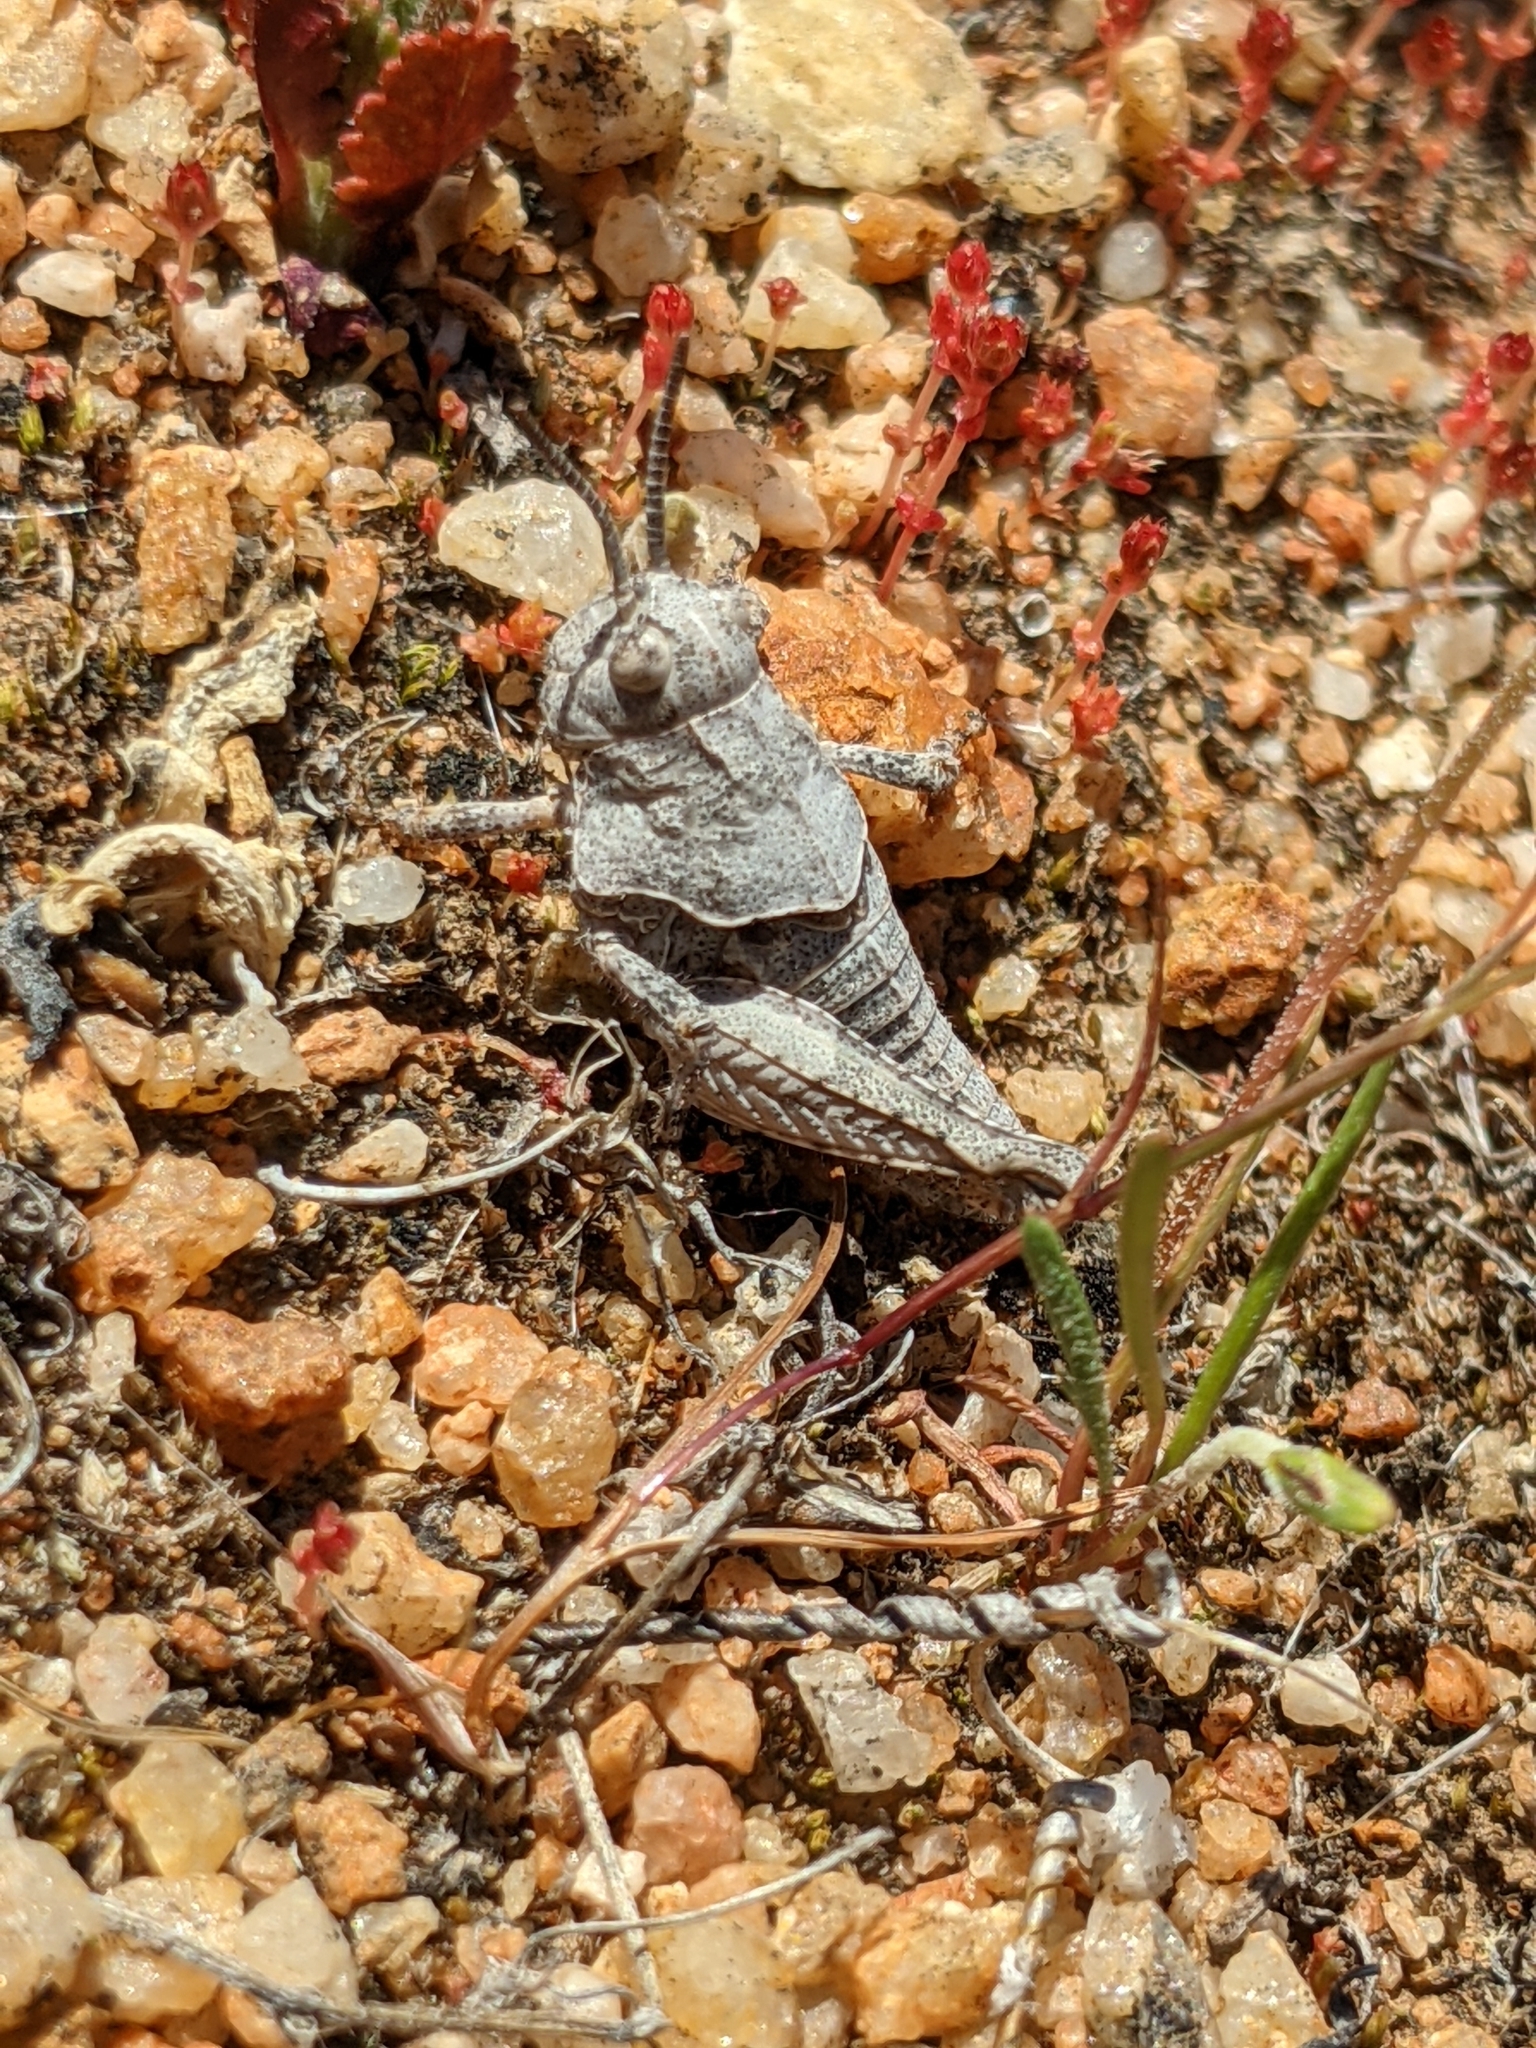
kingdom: Animalia
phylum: Arthropoda
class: Insecta
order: Orthoptera
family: Acrididae
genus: Esselenia
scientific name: Esselenia vanduzeei
